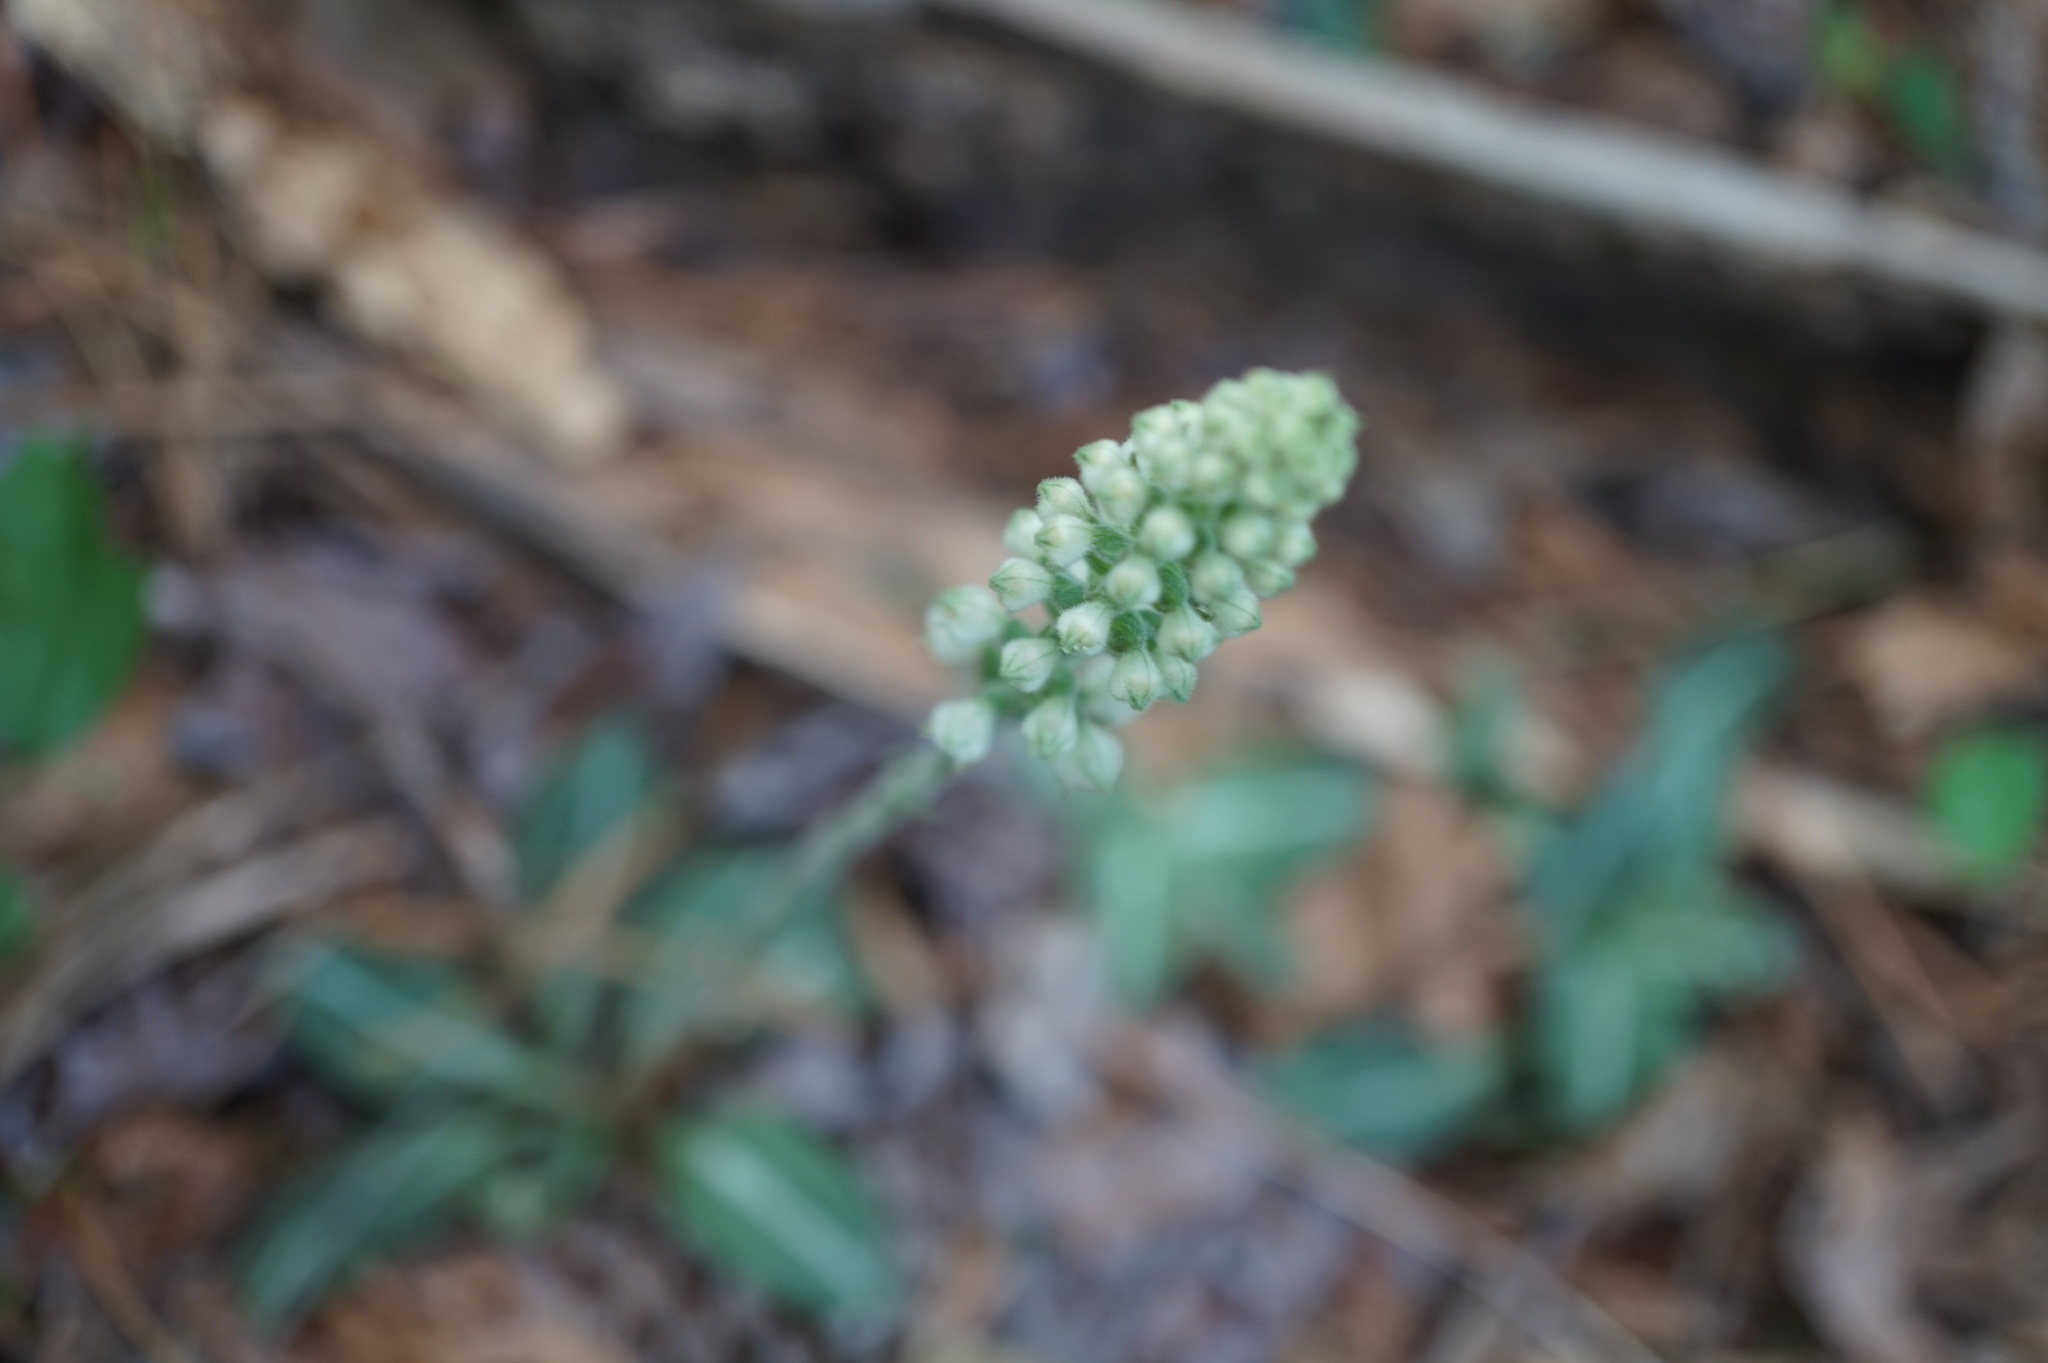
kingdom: Plantae
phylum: Tracheophyta
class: Liliopsida
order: Asparagales
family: Orchidaceae
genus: Goodyera
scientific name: Goodyera pubescens
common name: Downy rattlesnake-plantain
